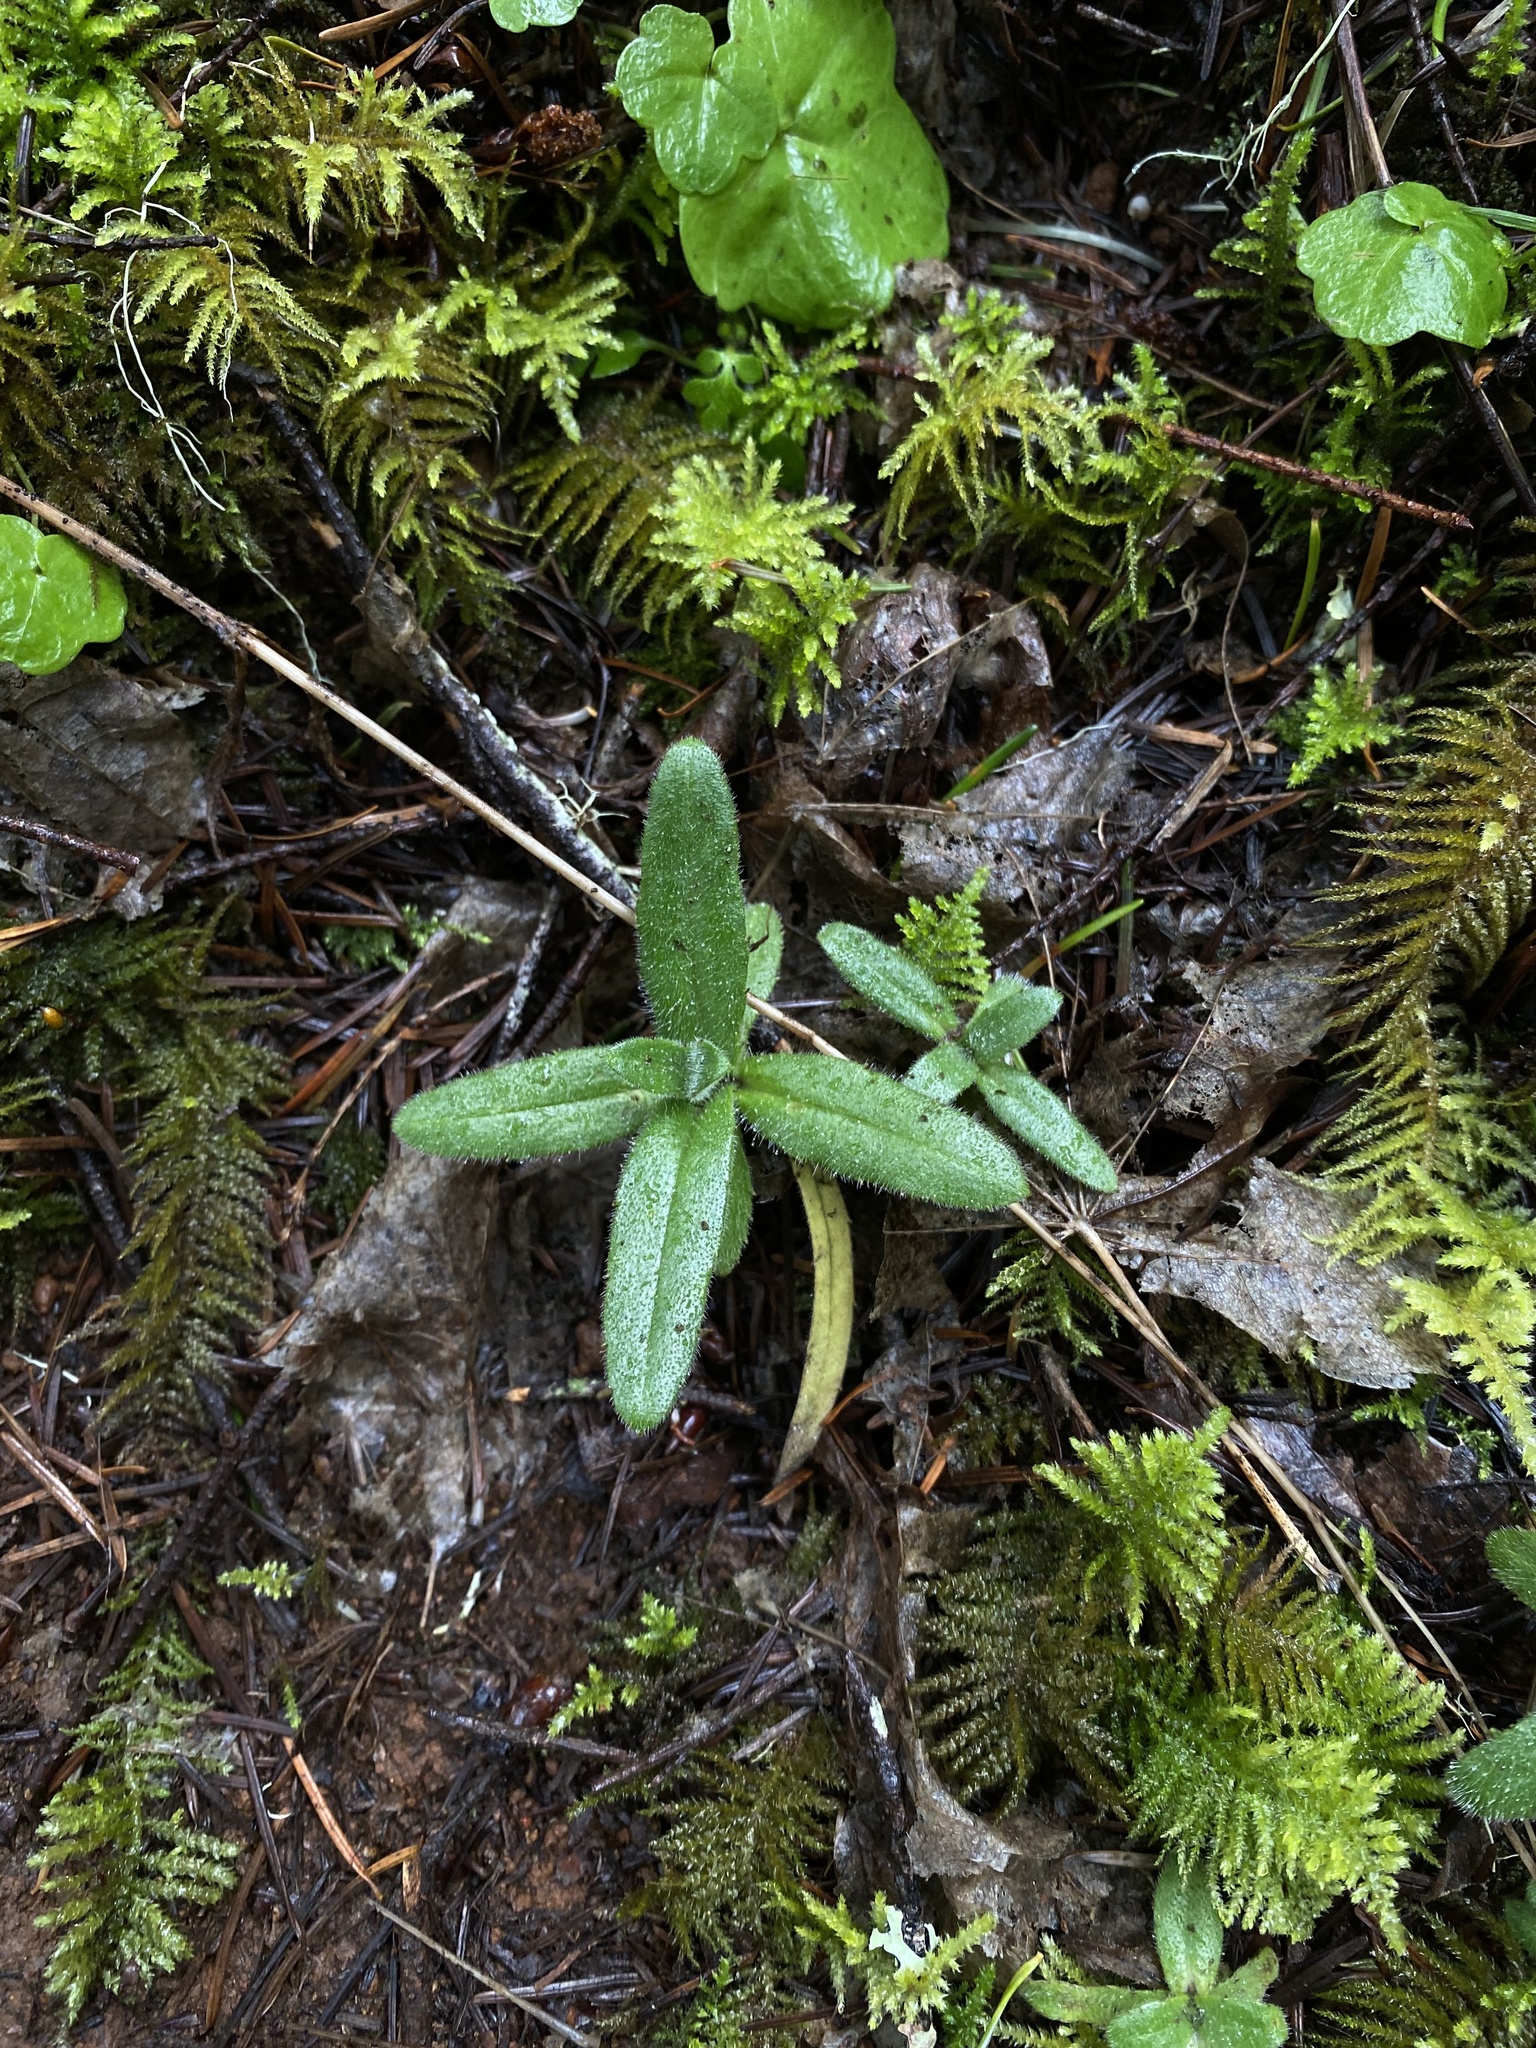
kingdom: Plantae
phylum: Tracheophyta
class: Magnoliopsida
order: Asterales
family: Asteraceae
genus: Anisocarpus
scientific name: Anisocarpus madioides
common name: Woodland madia
